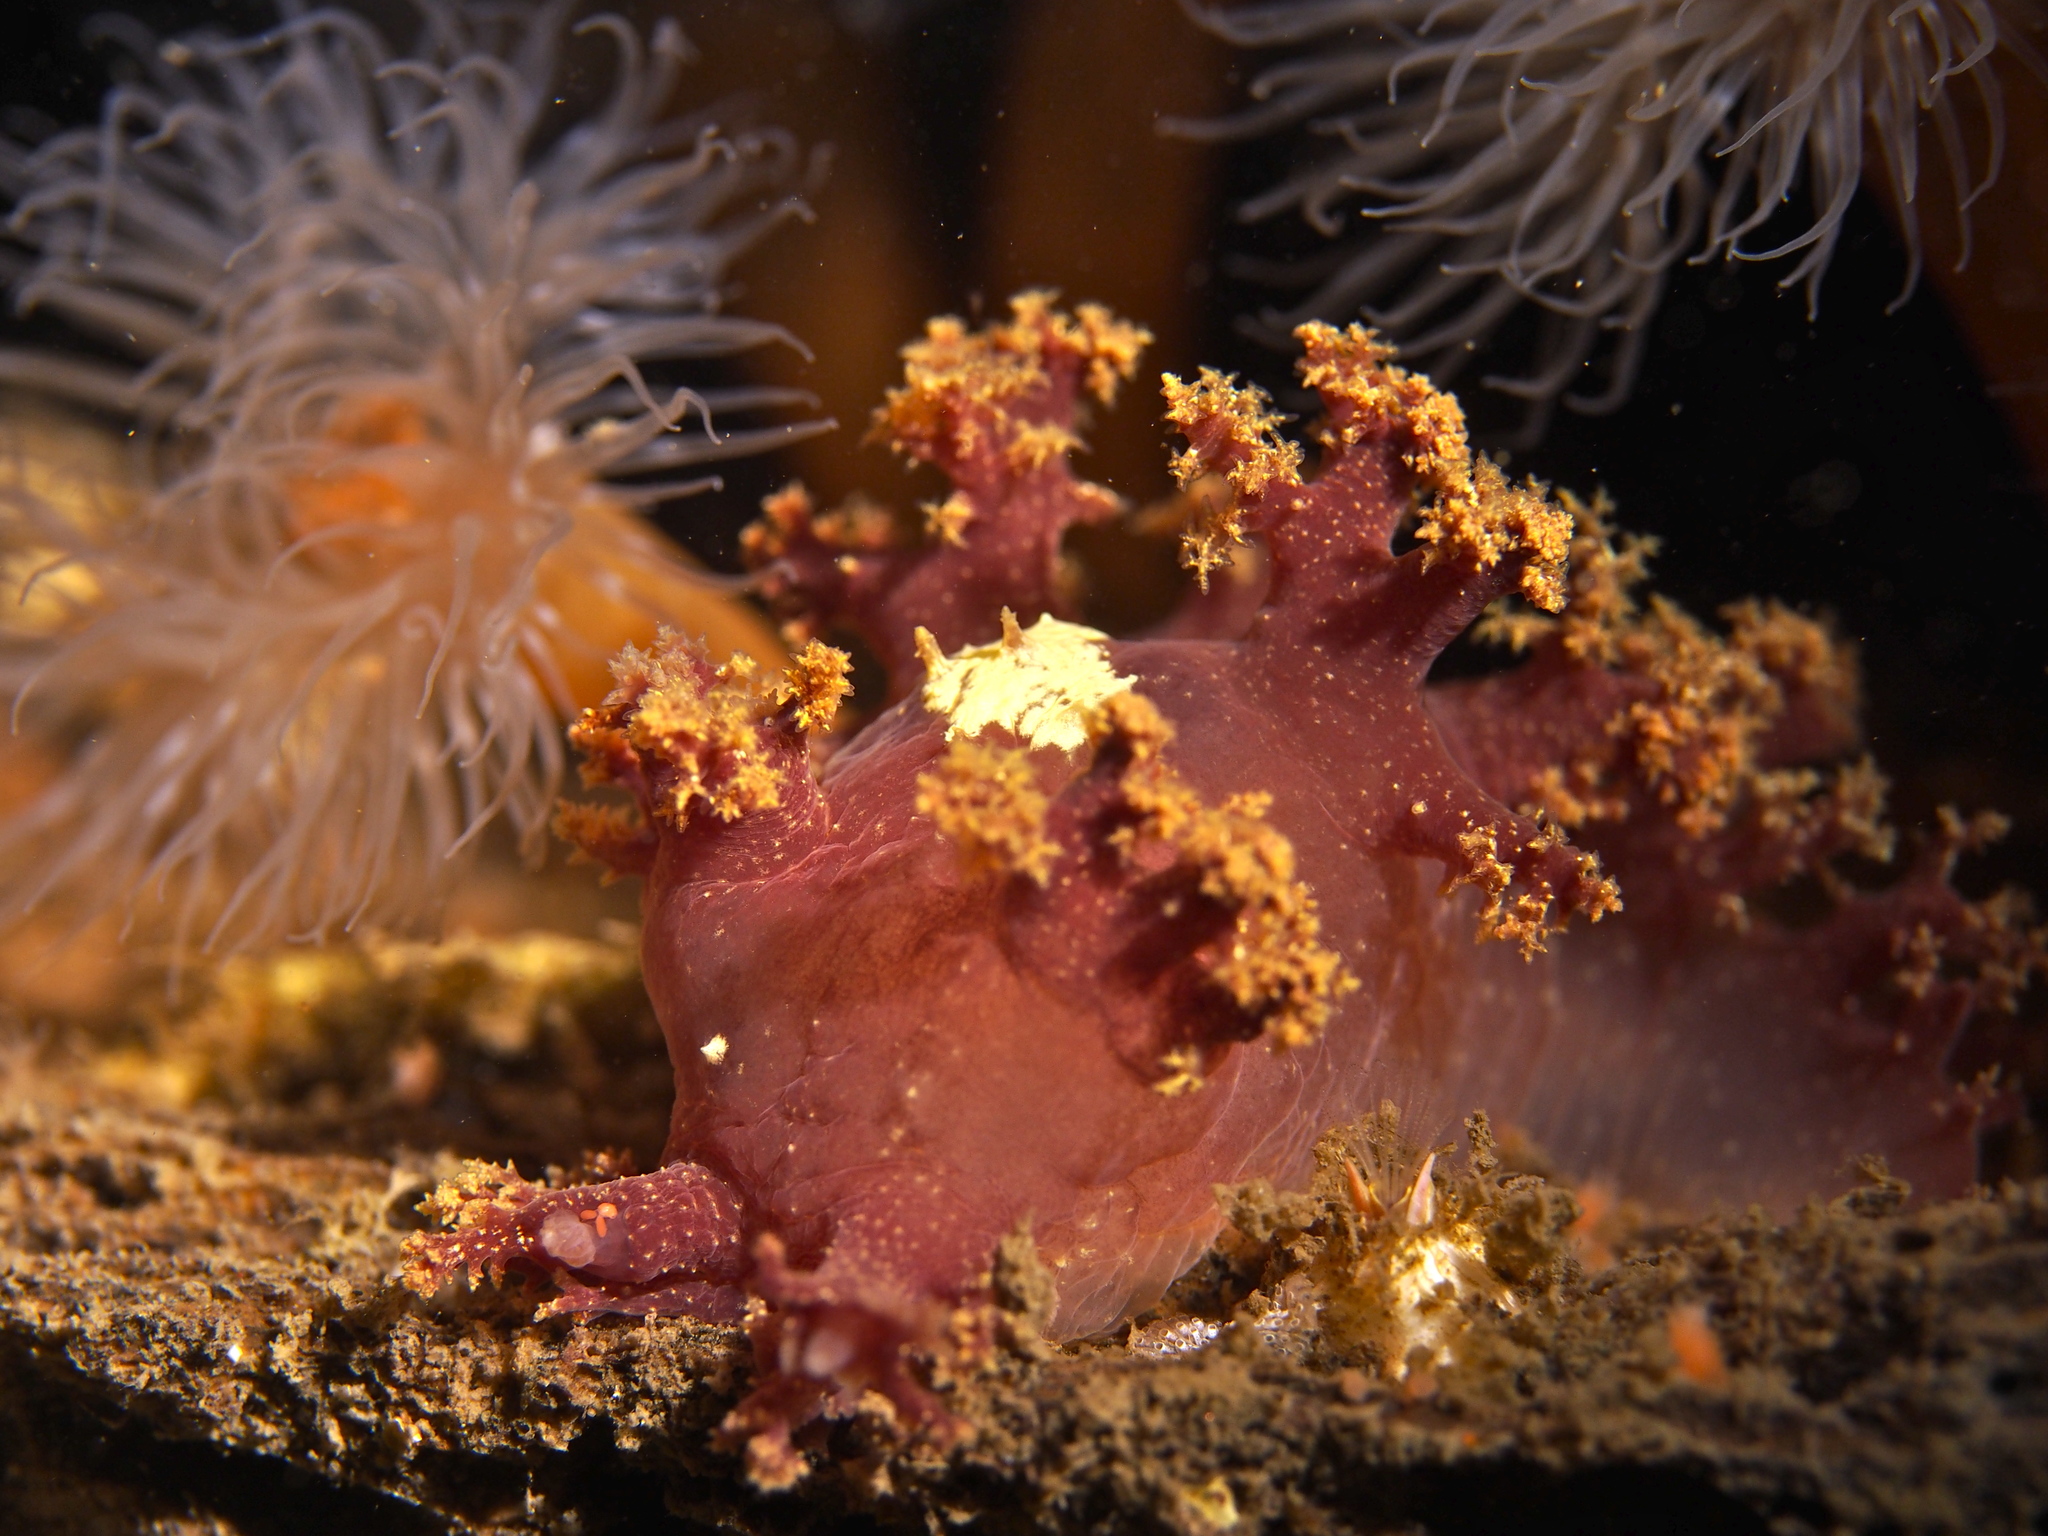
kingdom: Animalia
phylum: Mollusca
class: Gastropoda
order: Nudibranchia
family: Dendronotidae
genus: Dendronotus
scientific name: Dendronotus lacteus
